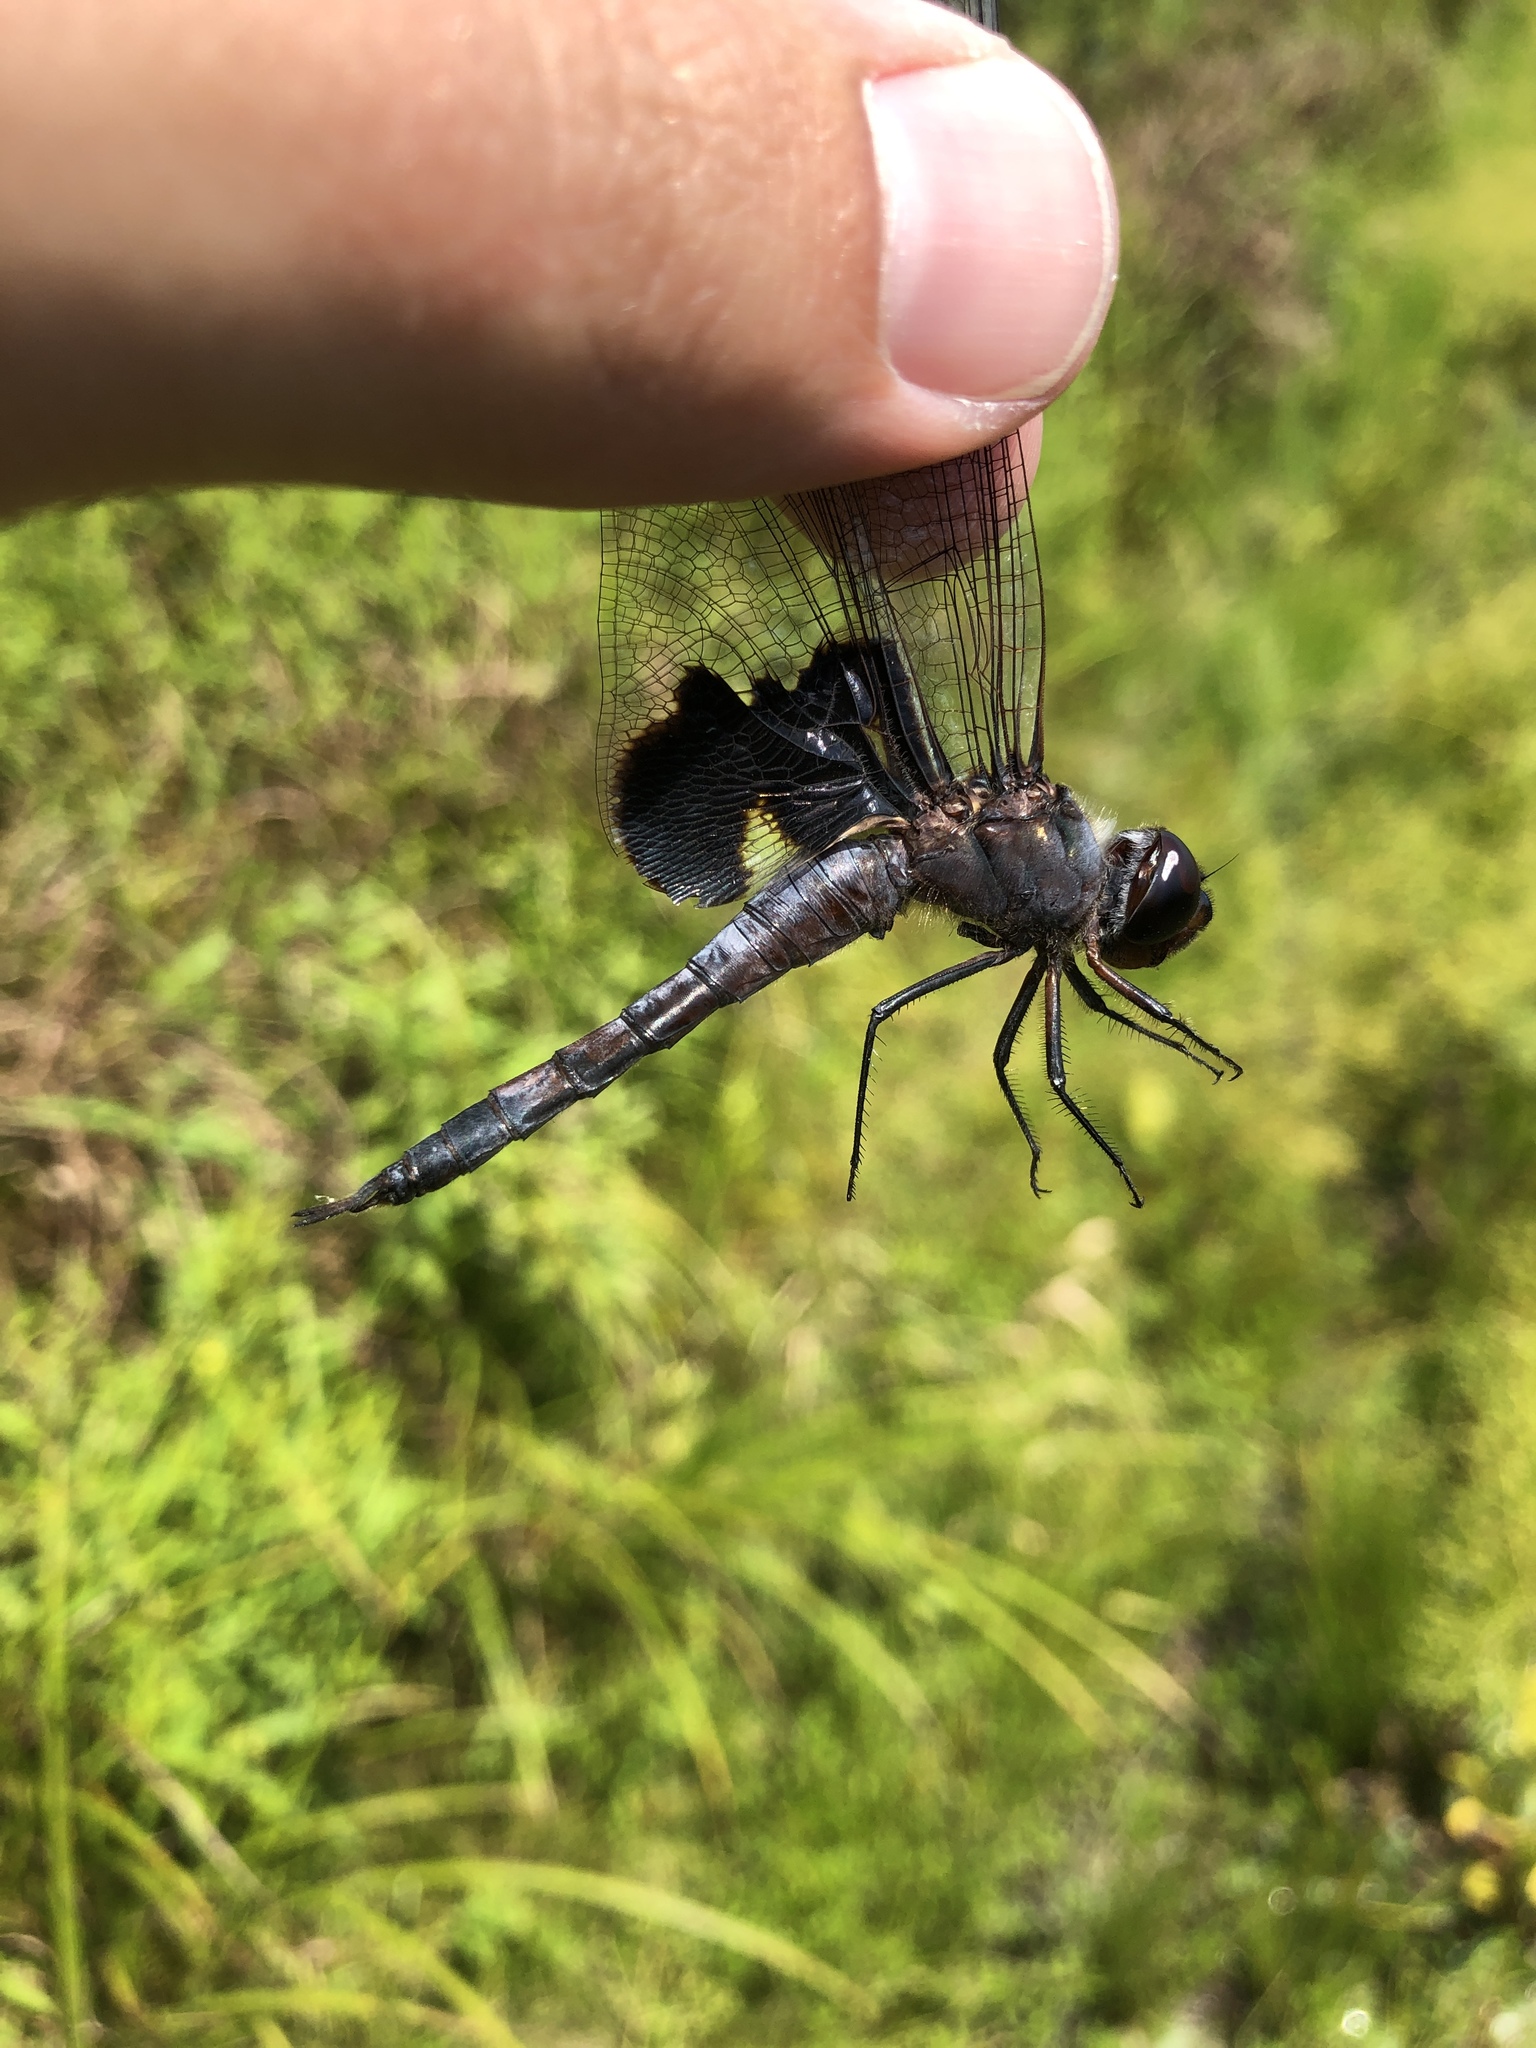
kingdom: Animalia
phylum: Arthropoda
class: Insecta
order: Odonata
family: Libellulidae
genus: Tramea
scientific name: Tramea lacerata
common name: Black saddlebags
